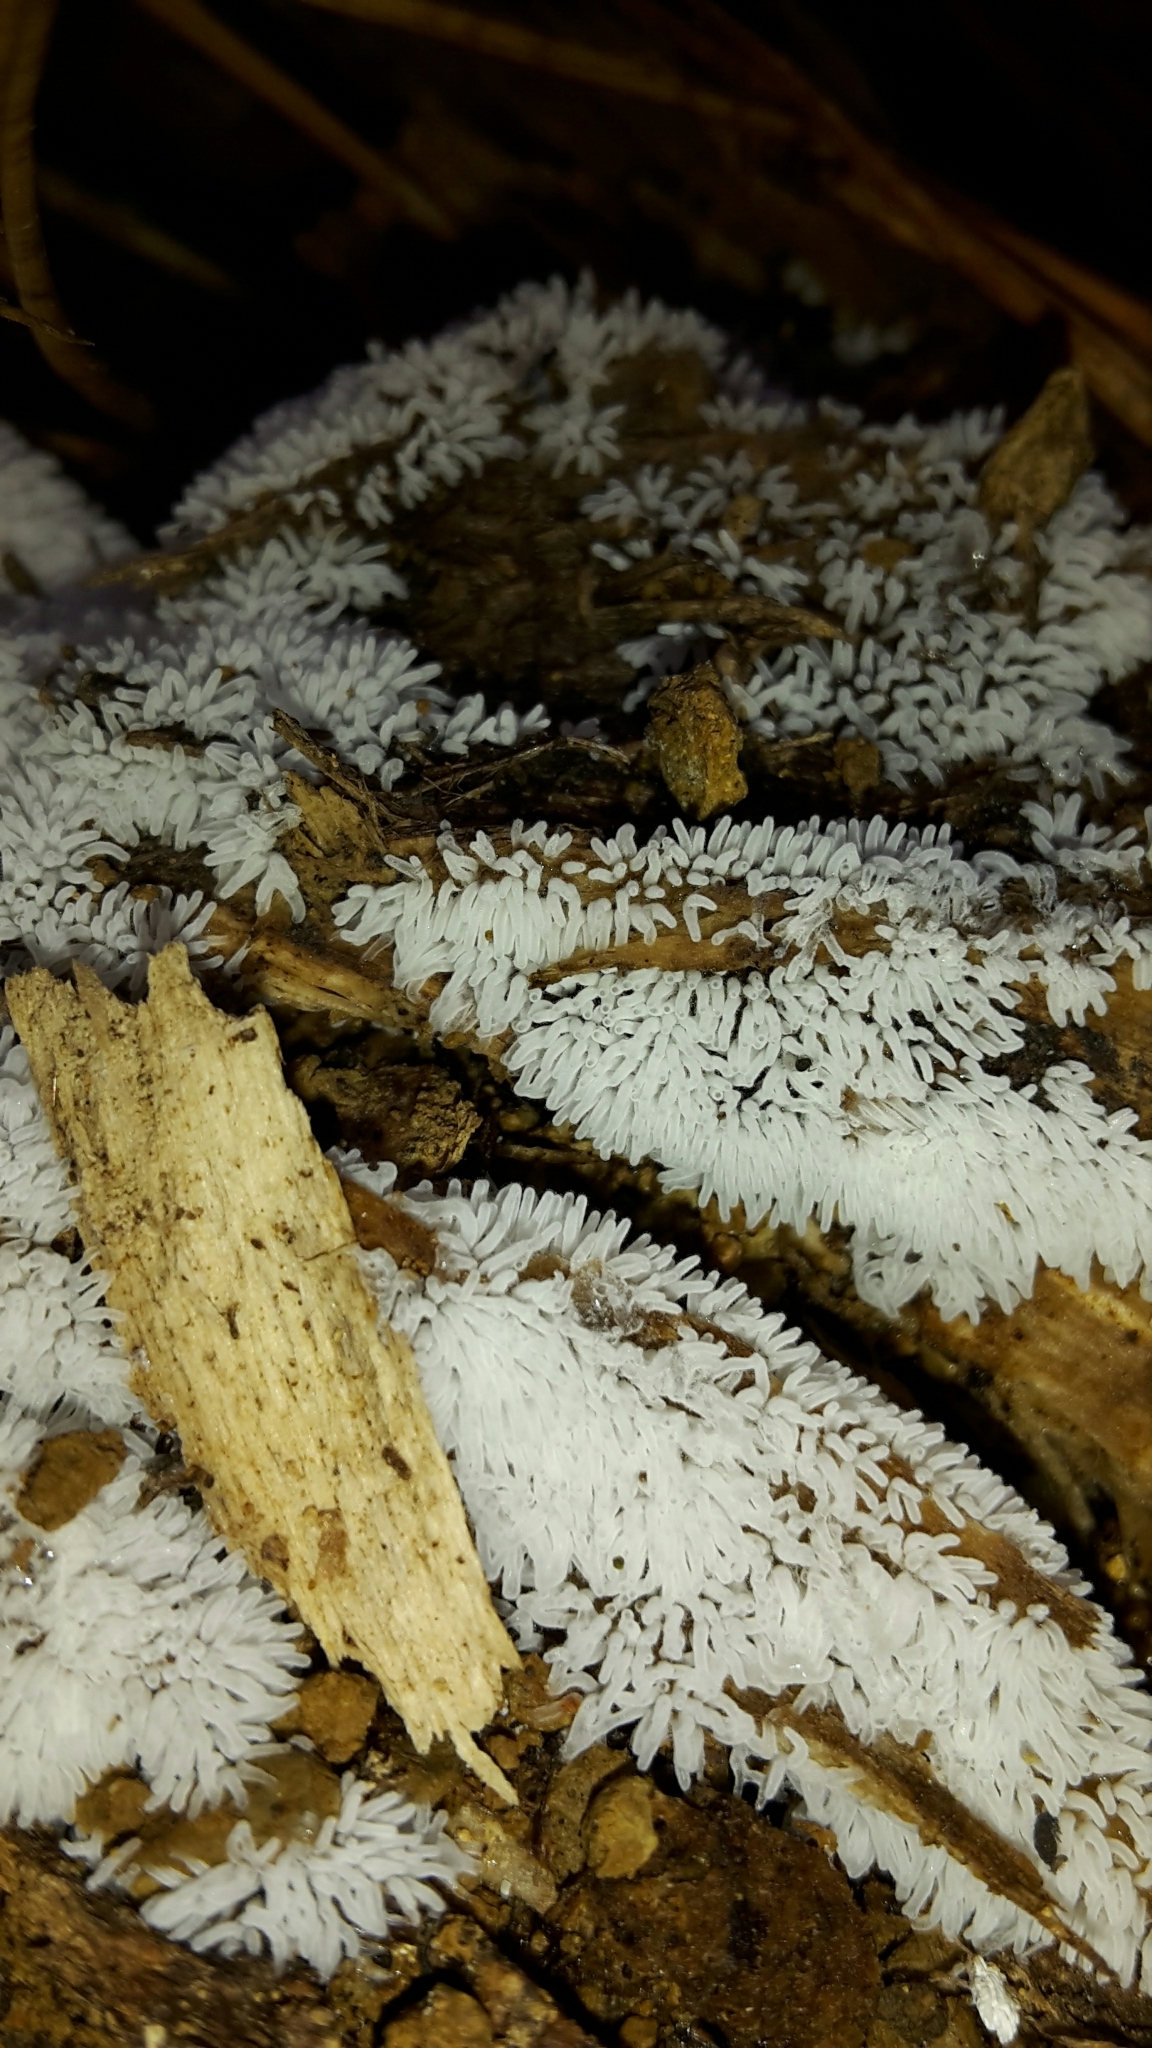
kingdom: Protozoa
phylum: Mycetozoa
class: Protosteliomycetes
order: Ceratiomyxales
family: Ceratiomyxaceae
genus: Ceratiomyxa
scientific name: Ceratiomyxa fruticulosa
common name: Honeycomb coral slime mold
